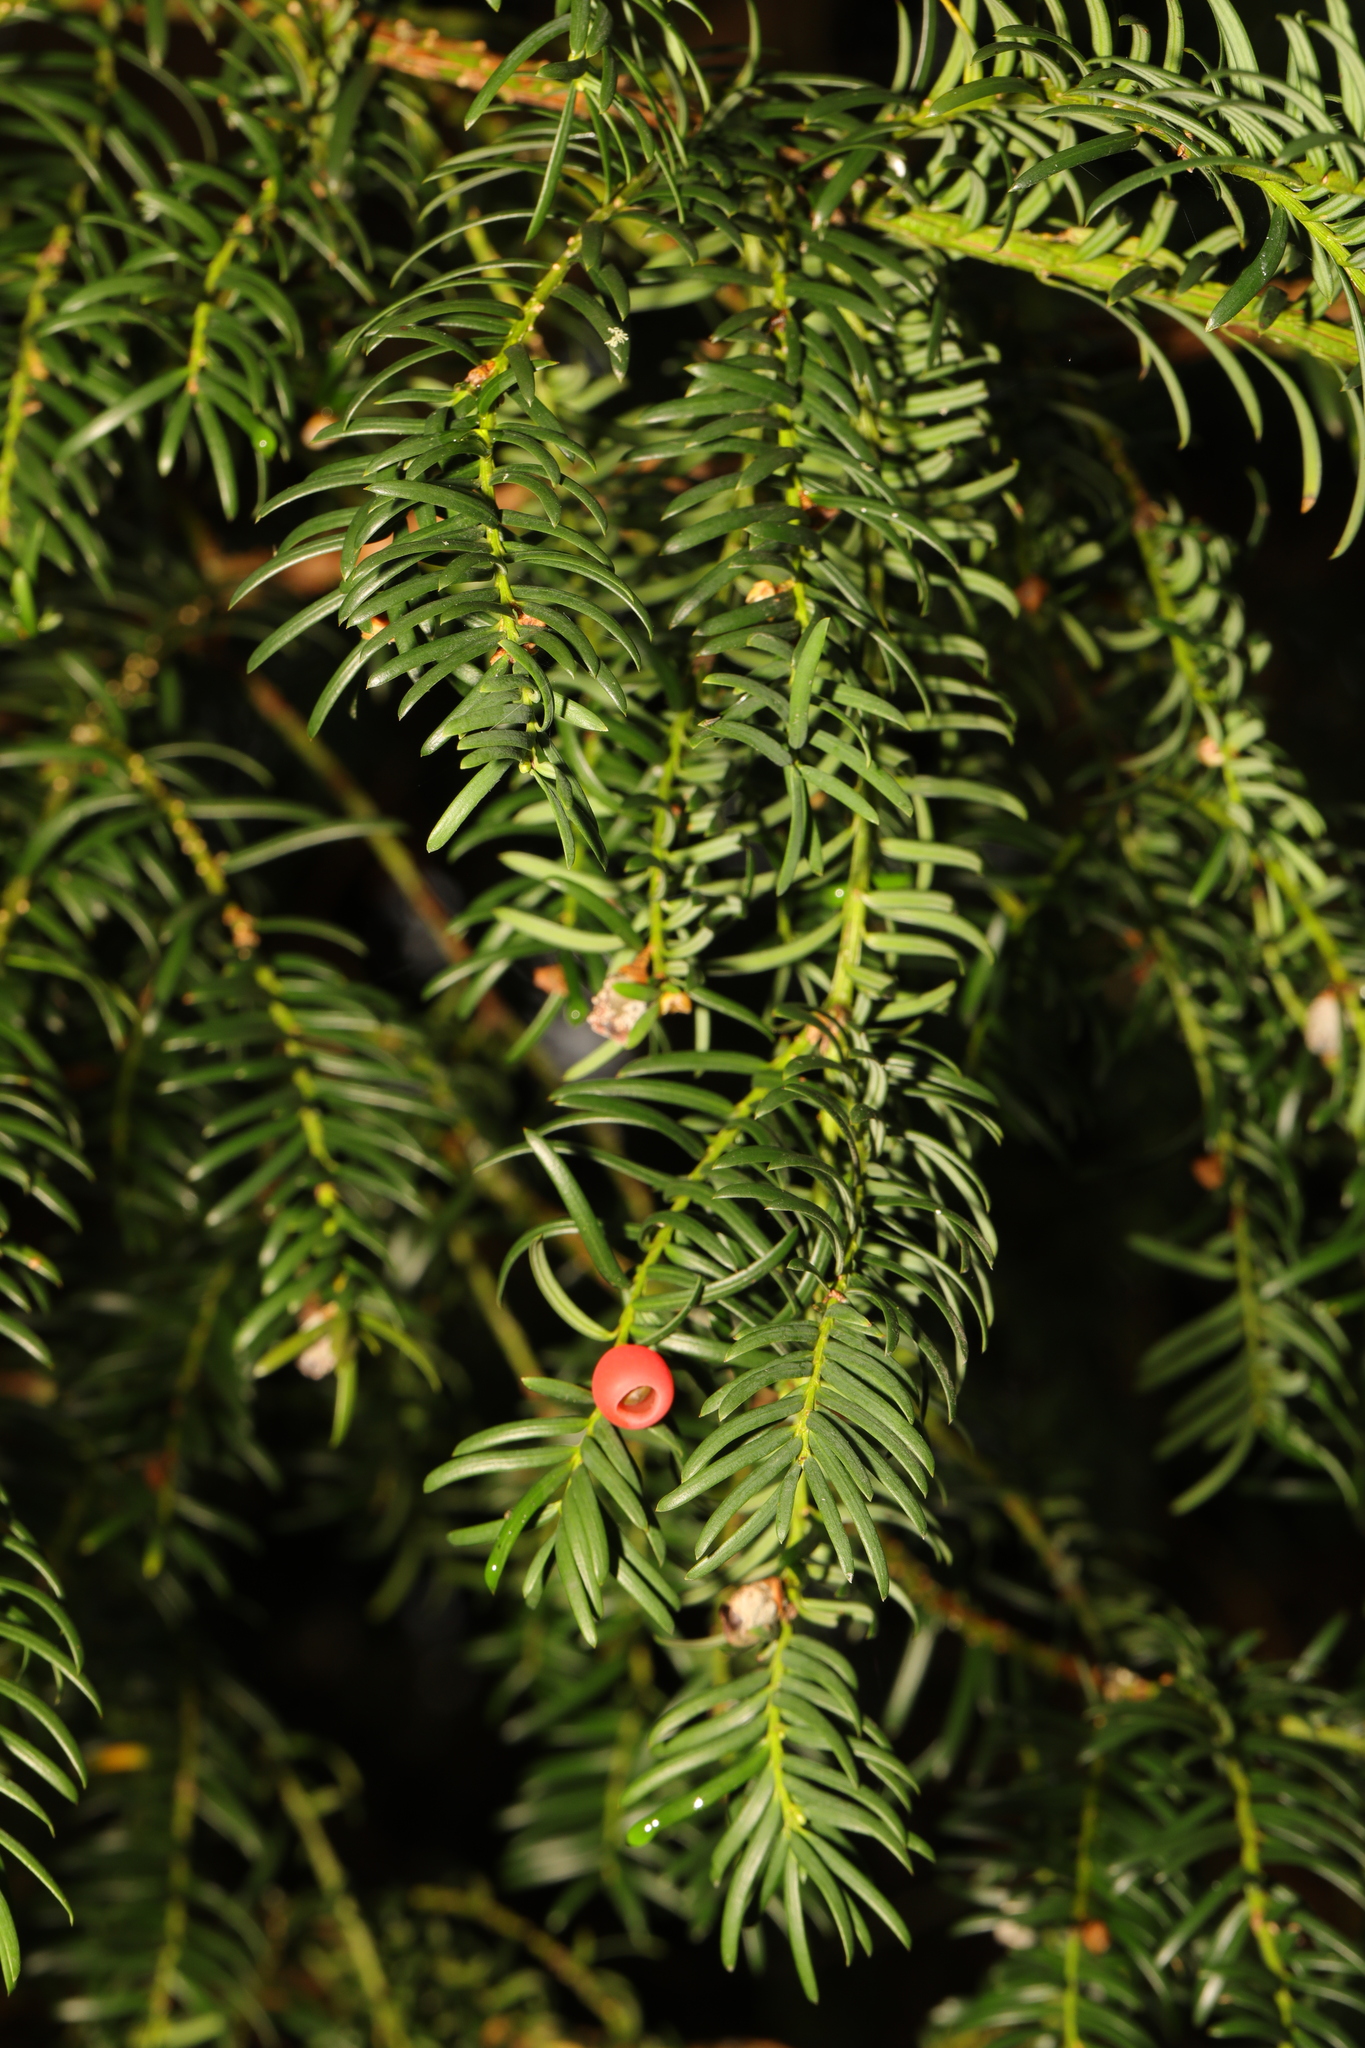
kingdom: Plantae
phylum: Tracheophyta
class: Pinopsida
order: Pinales
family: Taxaceae
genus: Taxus
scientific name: Taxus baccata
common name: Yew
